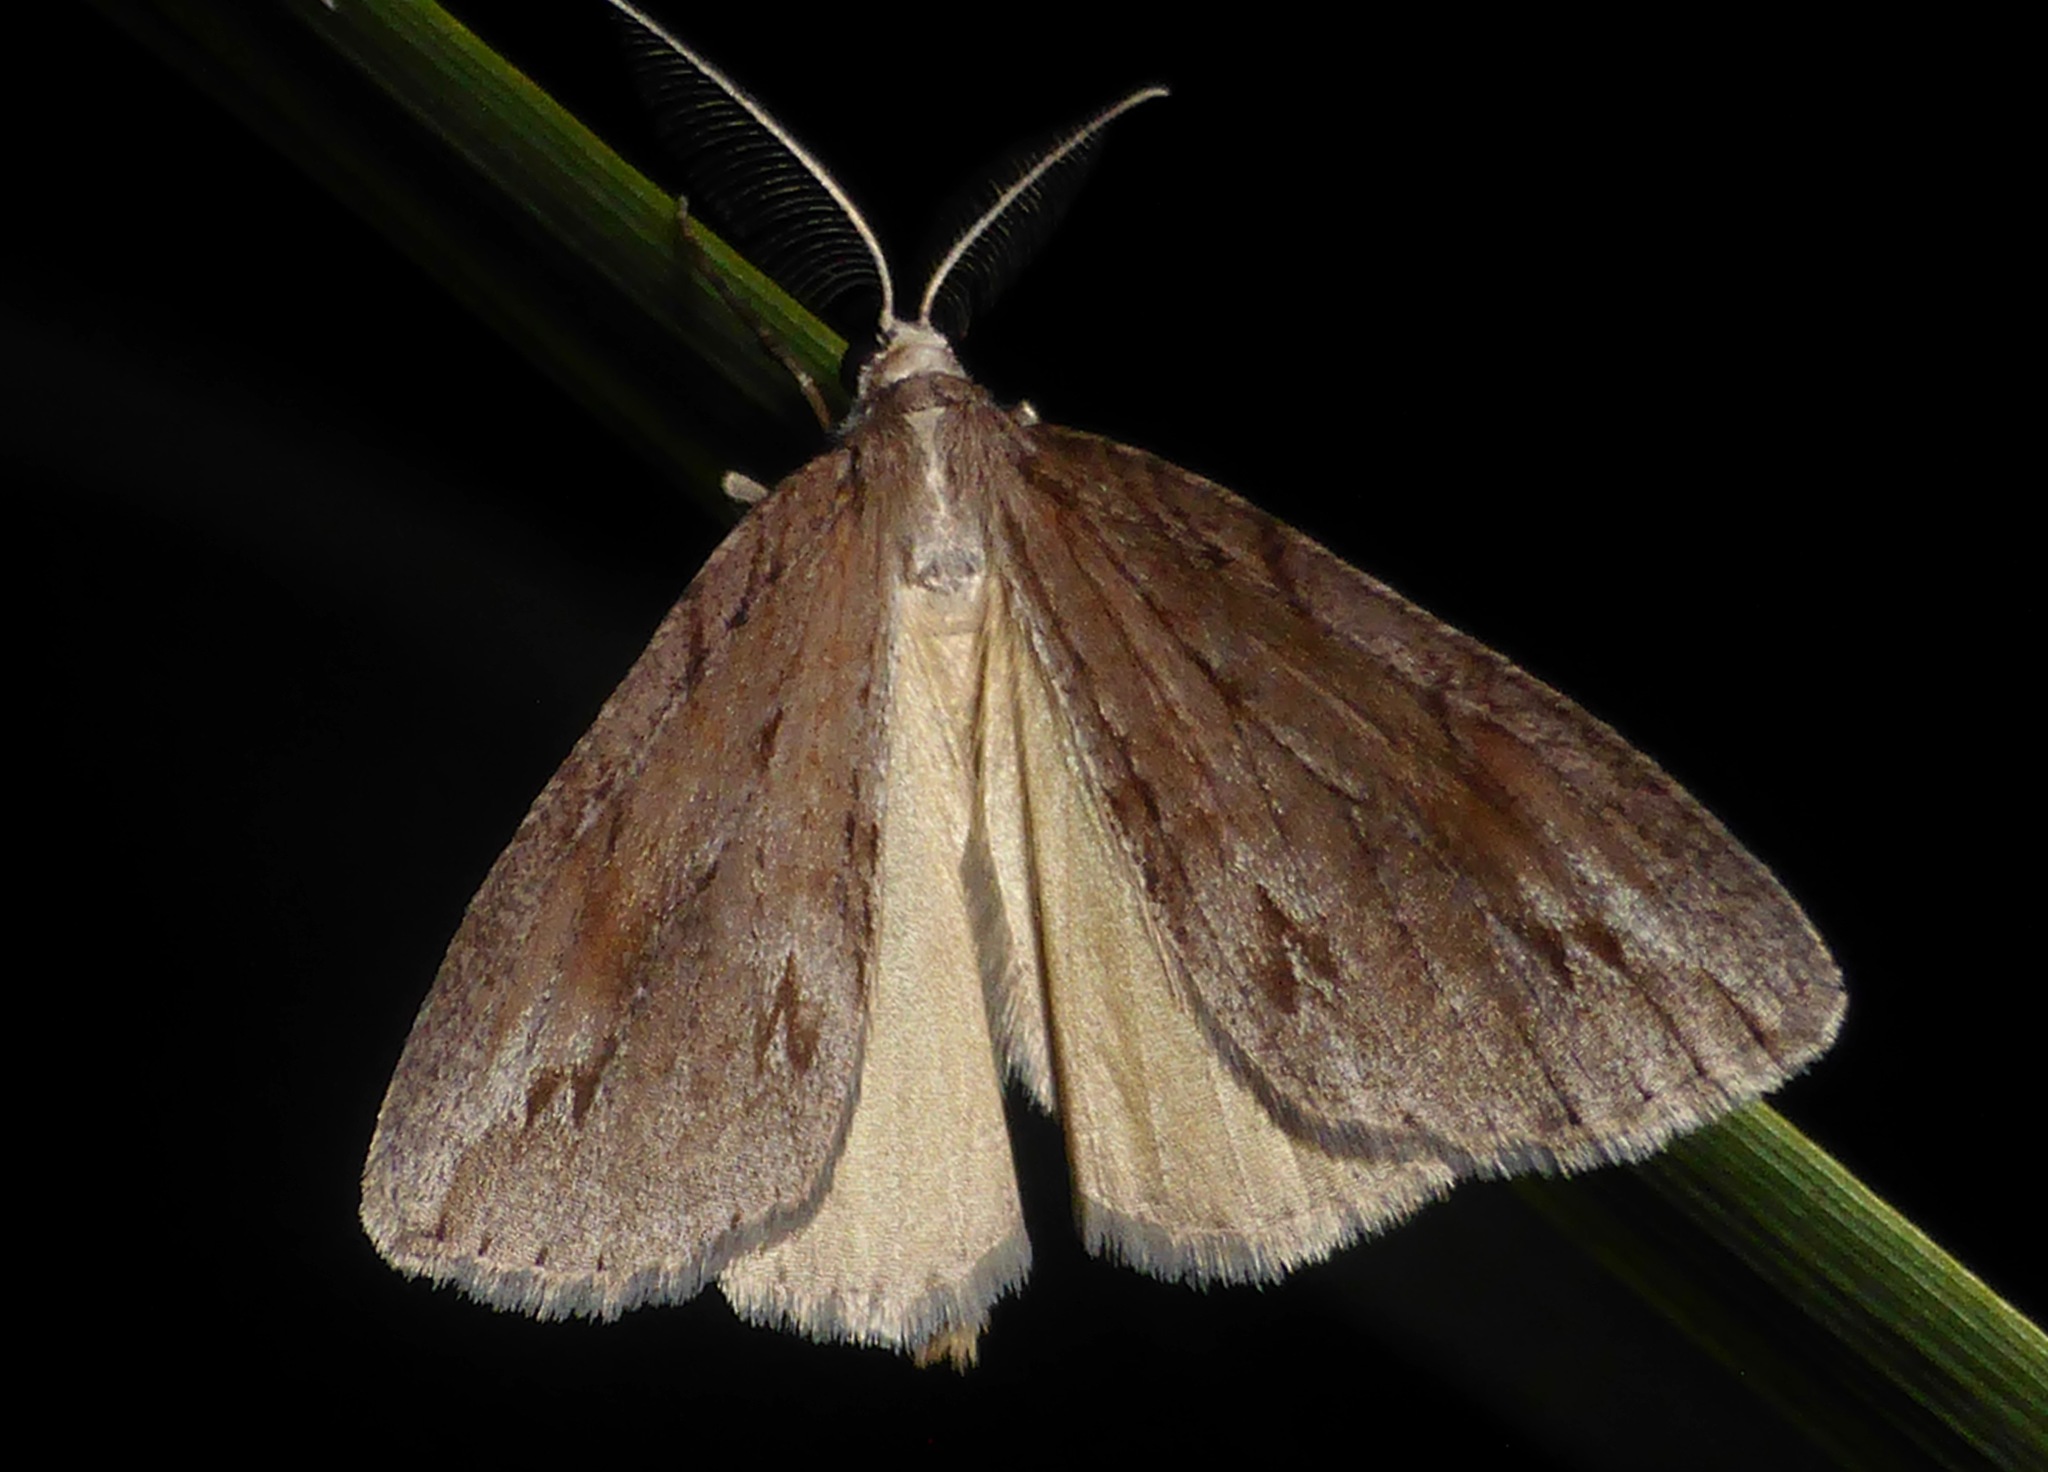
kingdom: Animalia
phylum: Arthropoda
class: Insecta
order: Lepidoptera
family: Geometridae
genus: Pseudocoremia
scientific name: Pseudocoremia lupinata
